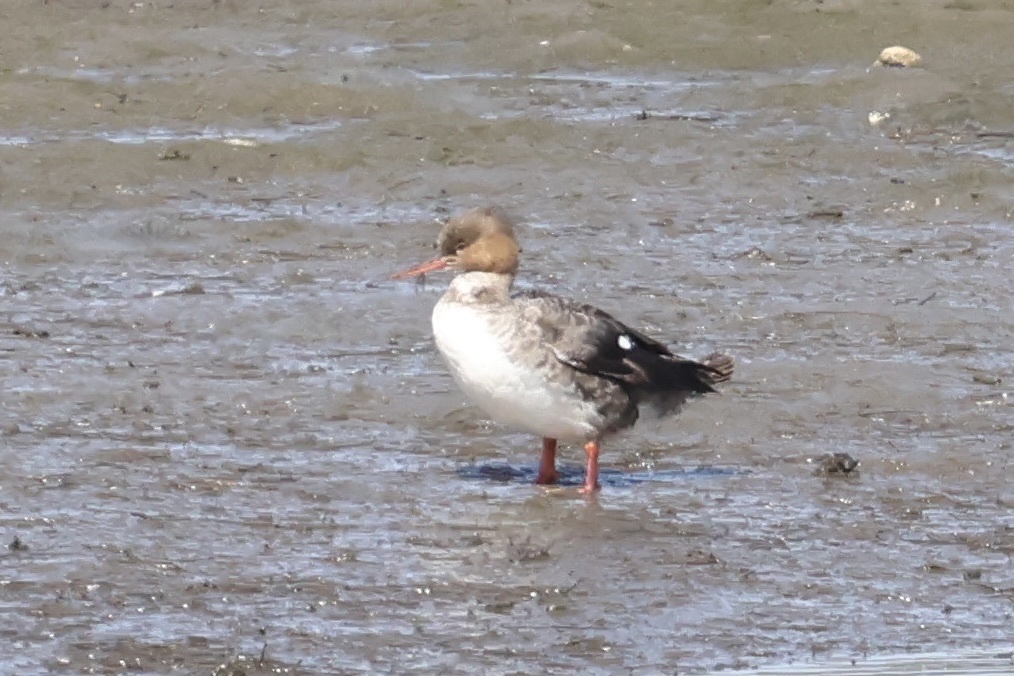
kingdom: Animalia
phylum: Chordata
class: Aves
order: Anseriformes
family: Anatidae
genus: Mergus
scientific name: Mergus serrator
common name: Red-breasted merganser
